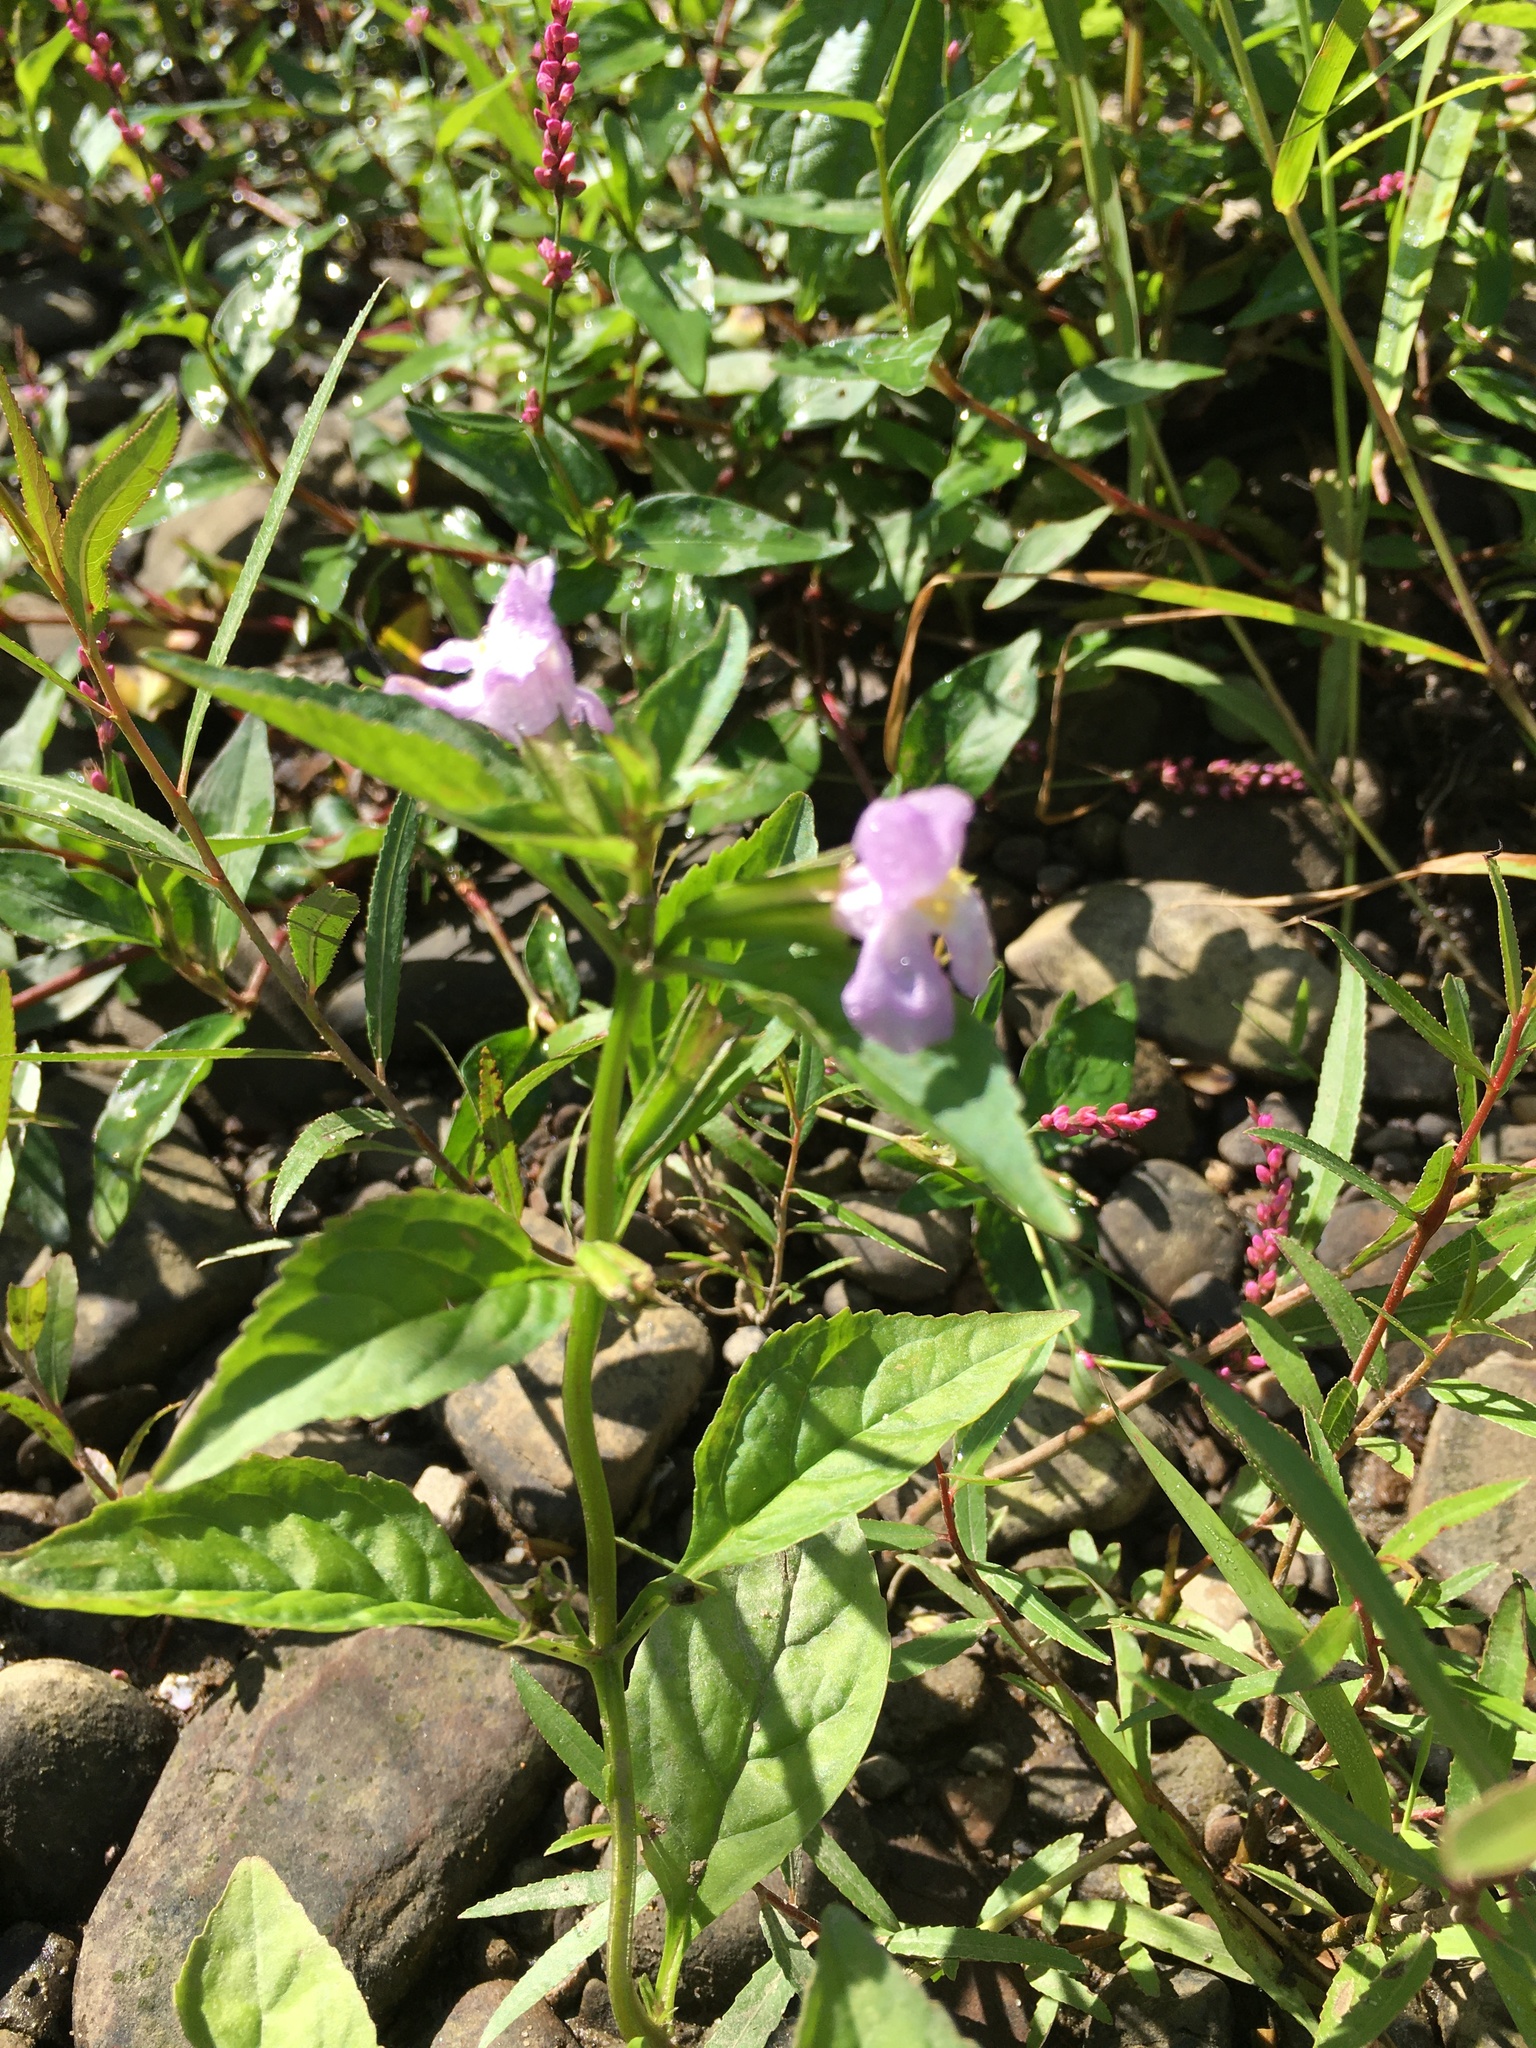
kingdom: Plantae
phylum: Tracheophyta
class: Magnoliopsida
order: Lamiales
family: Phrymaceae
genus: Mimulus
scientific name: Mimulus alatus
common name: Sharp-wing monkey-flower
